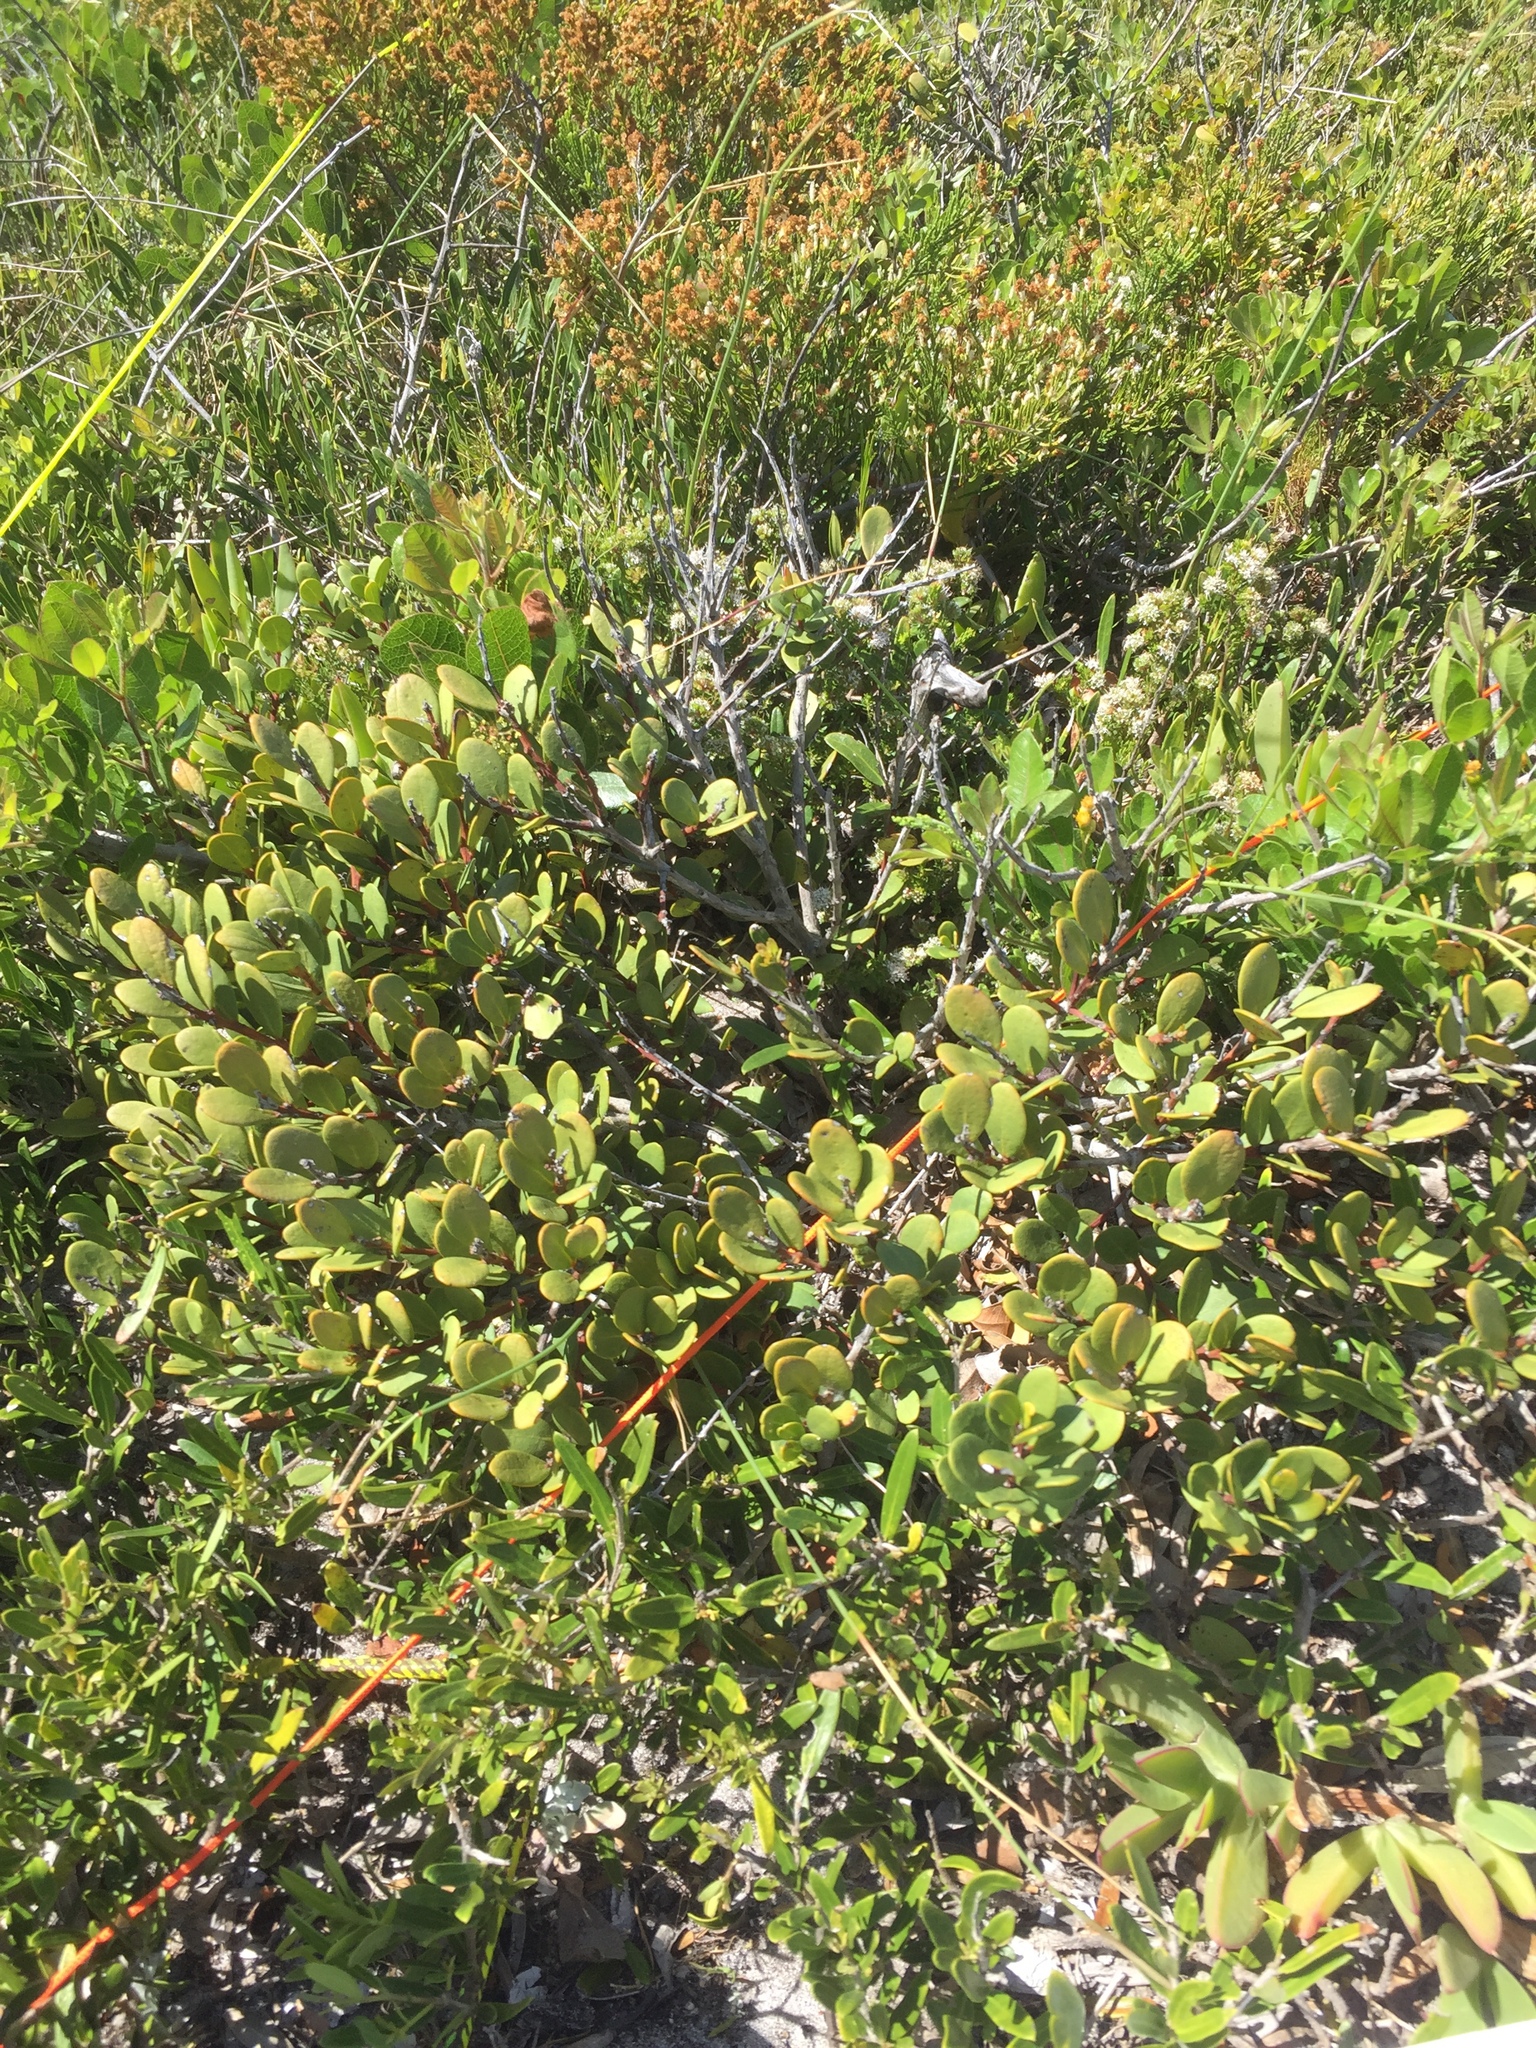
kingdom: Plantae
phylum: Tracheophyta
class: Magnoliopsida
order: Ericales
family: Ebenaceae
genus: Euclea
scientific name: Euclea racemosa
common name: Dune guarri
